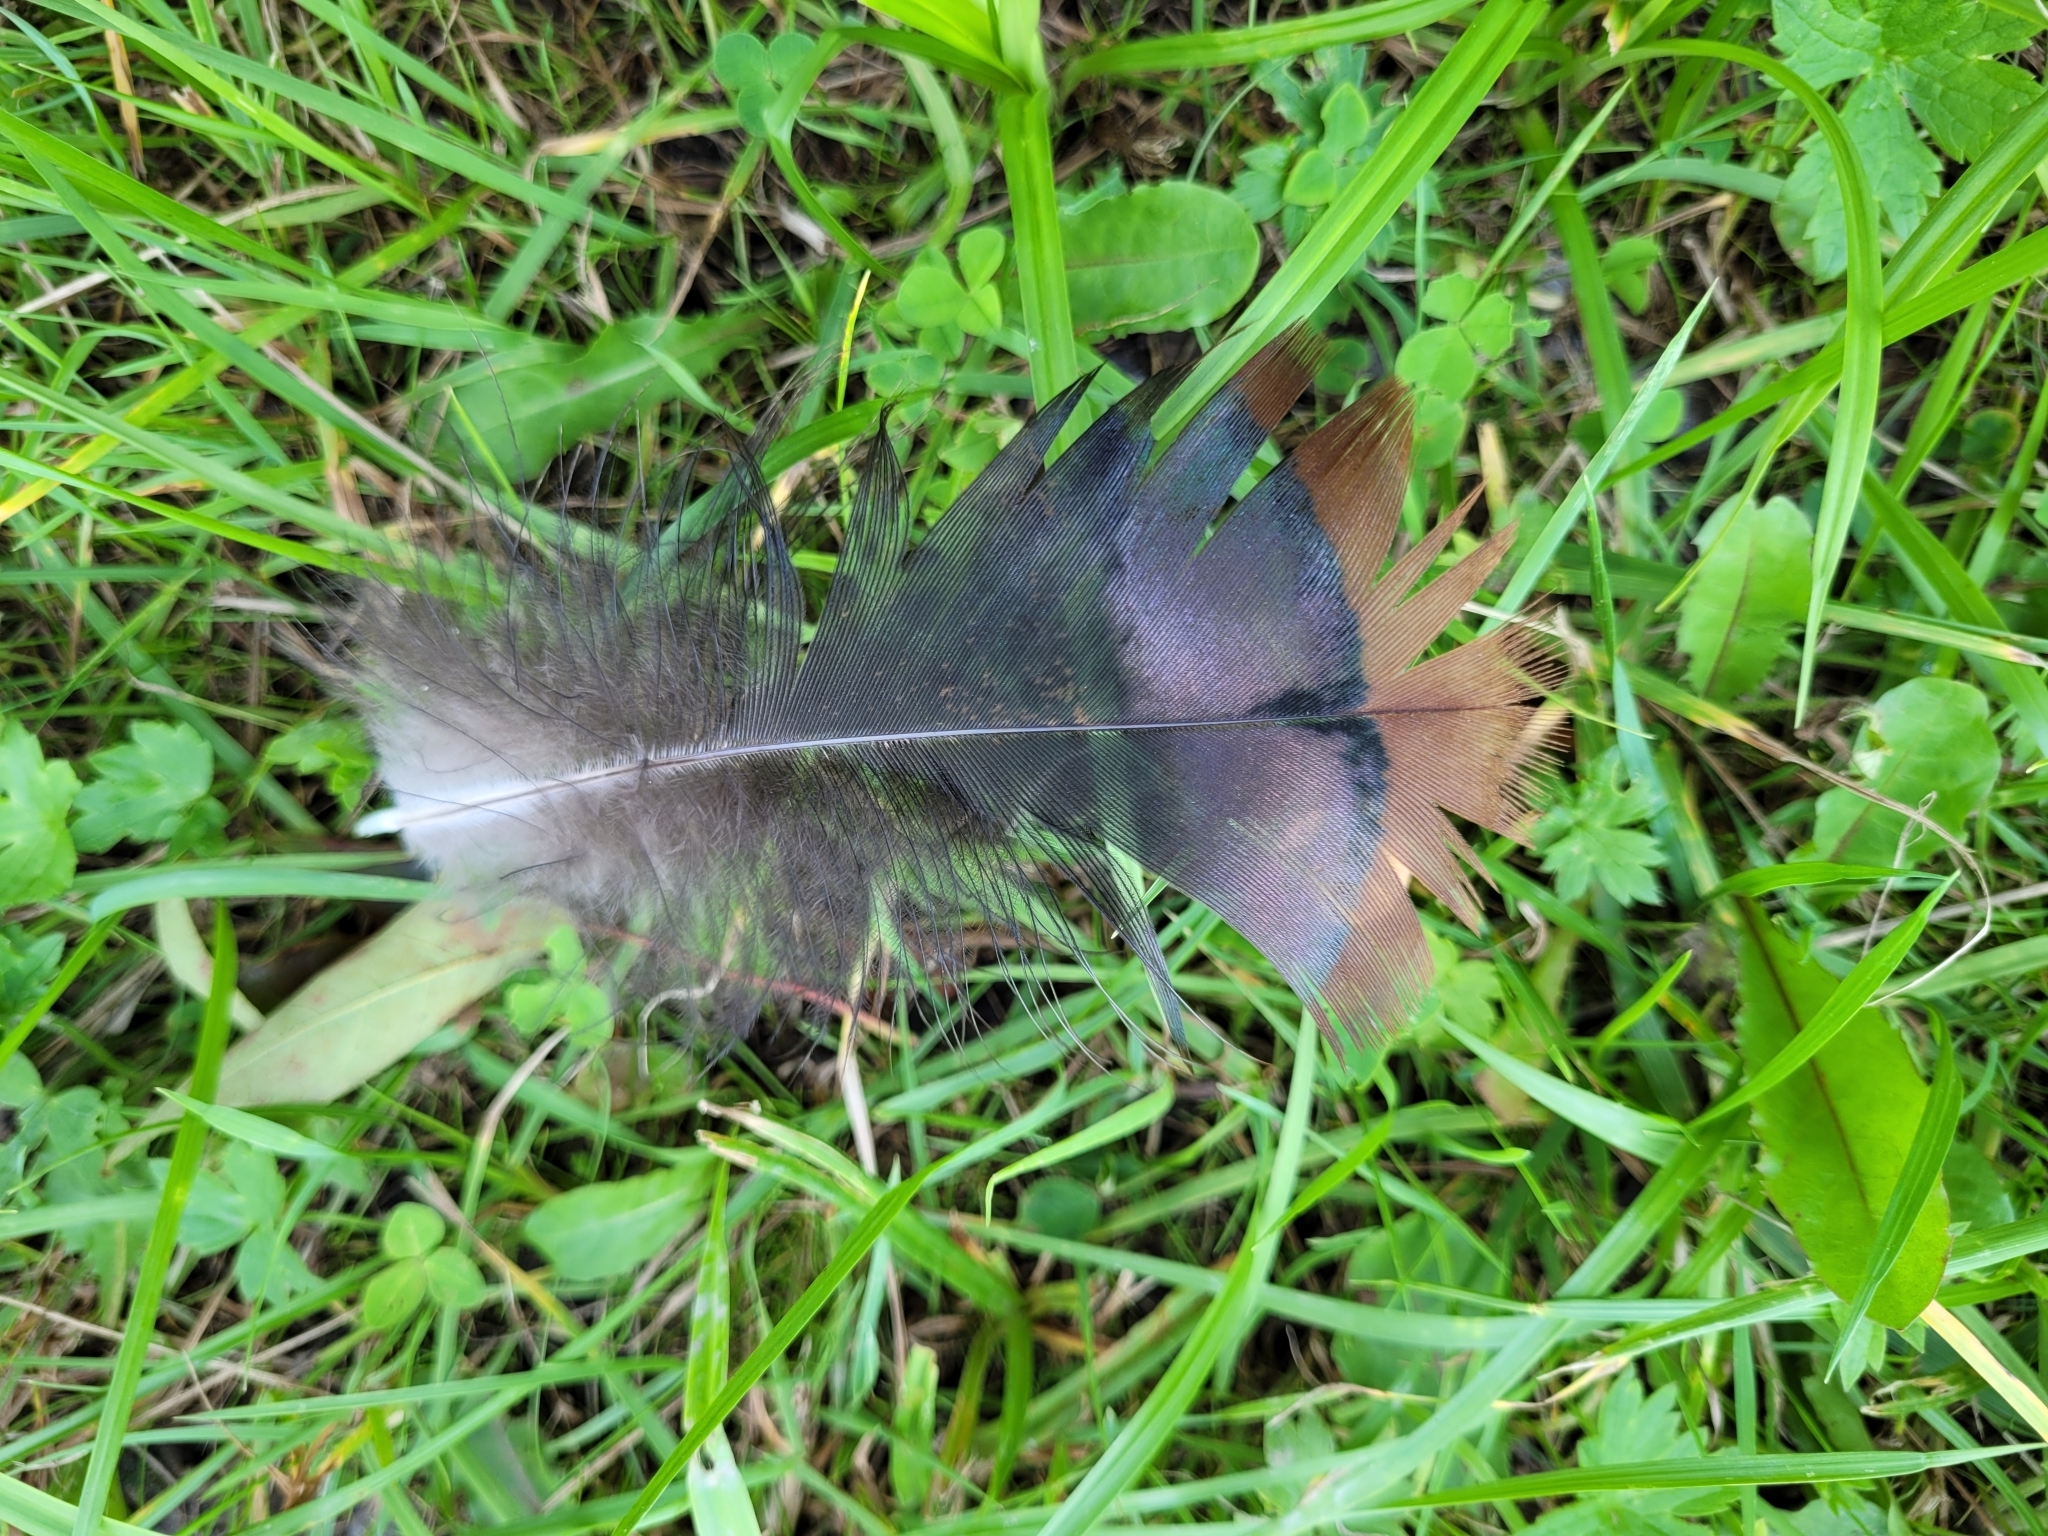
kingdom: Animalia
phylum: Chordata
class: Aves
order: Galliformes
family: Phasianidae
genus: Meleagris
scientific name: Meleagris gallopavo
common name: Wild turkey
